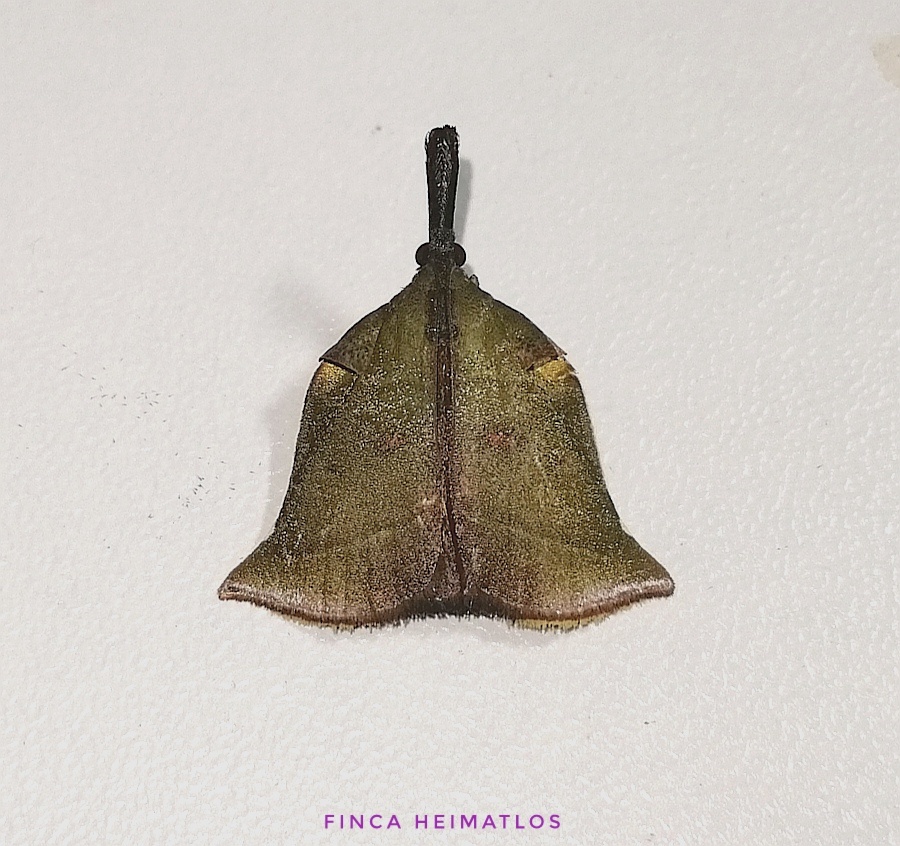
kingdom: Animalia
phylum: Arthropoda
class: Insecta
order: Lepidoptera
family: Pyralidae
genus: Casuaria
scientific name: Casuaria crumena
